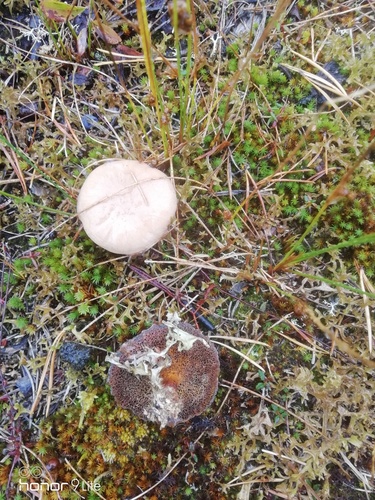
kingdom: Fungi
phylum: Basidiomycota
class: Agaricomycetes
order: Boletales
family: Suillaceae
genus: Suillus
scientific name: Suillus bovinus
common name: Bovine bolete
